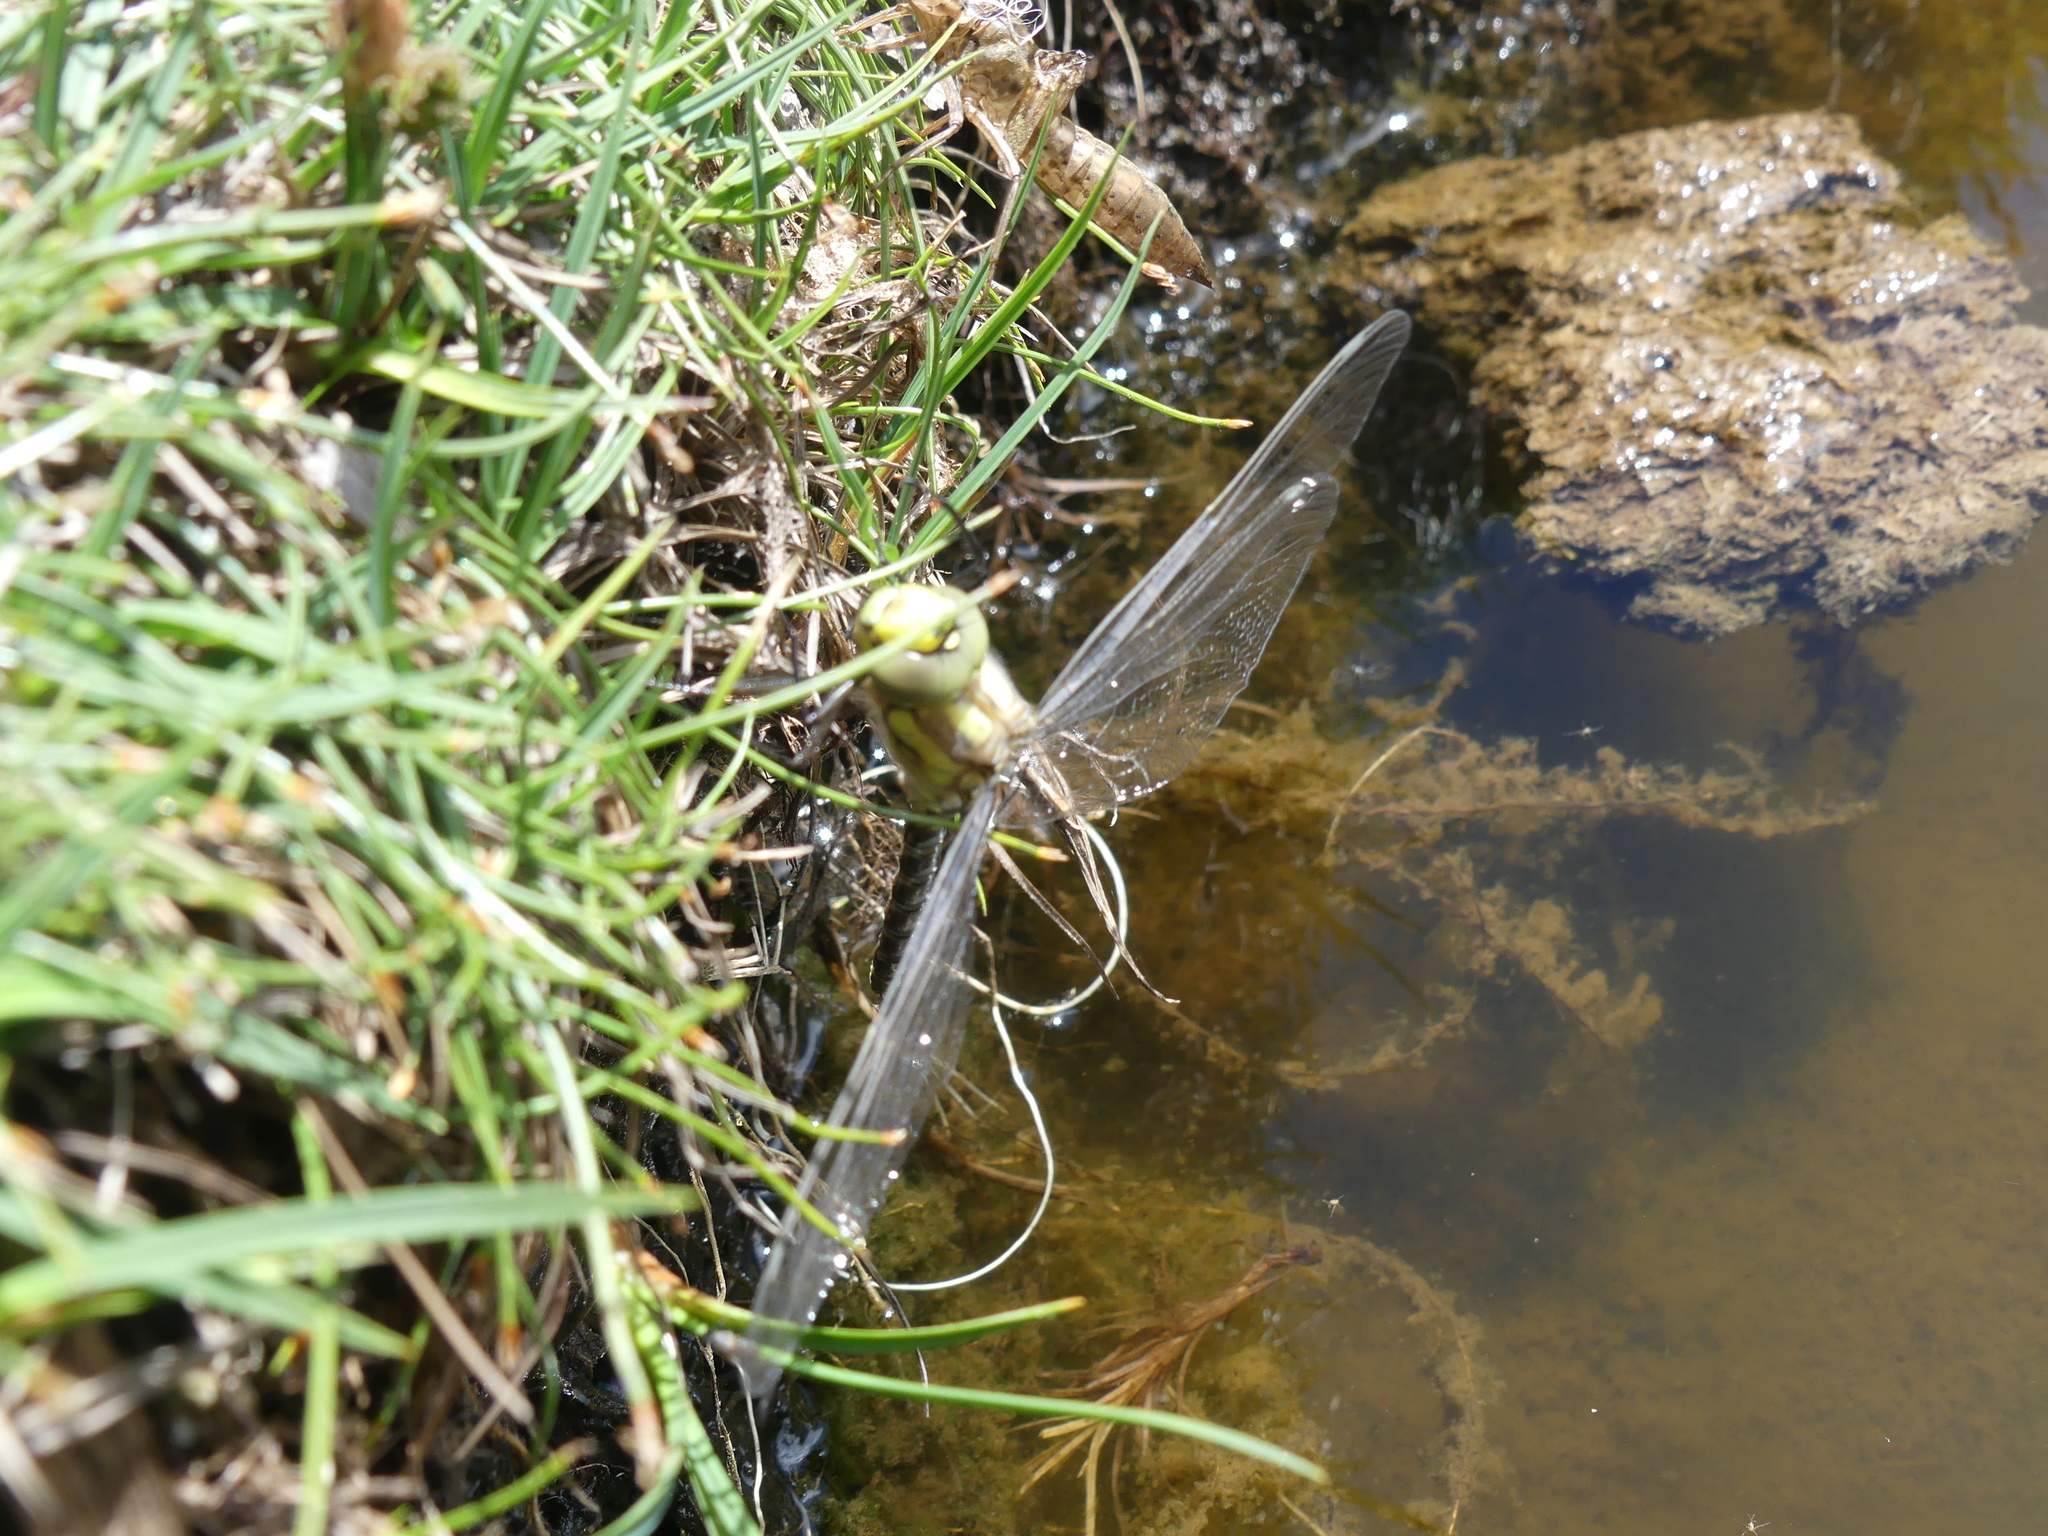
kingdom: Animalia
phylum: Arthropoda
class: Insecta
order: Odonata
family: Aeshnidae
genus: Aeshna
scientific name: Aeshna cyanea
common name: Southern hawker
